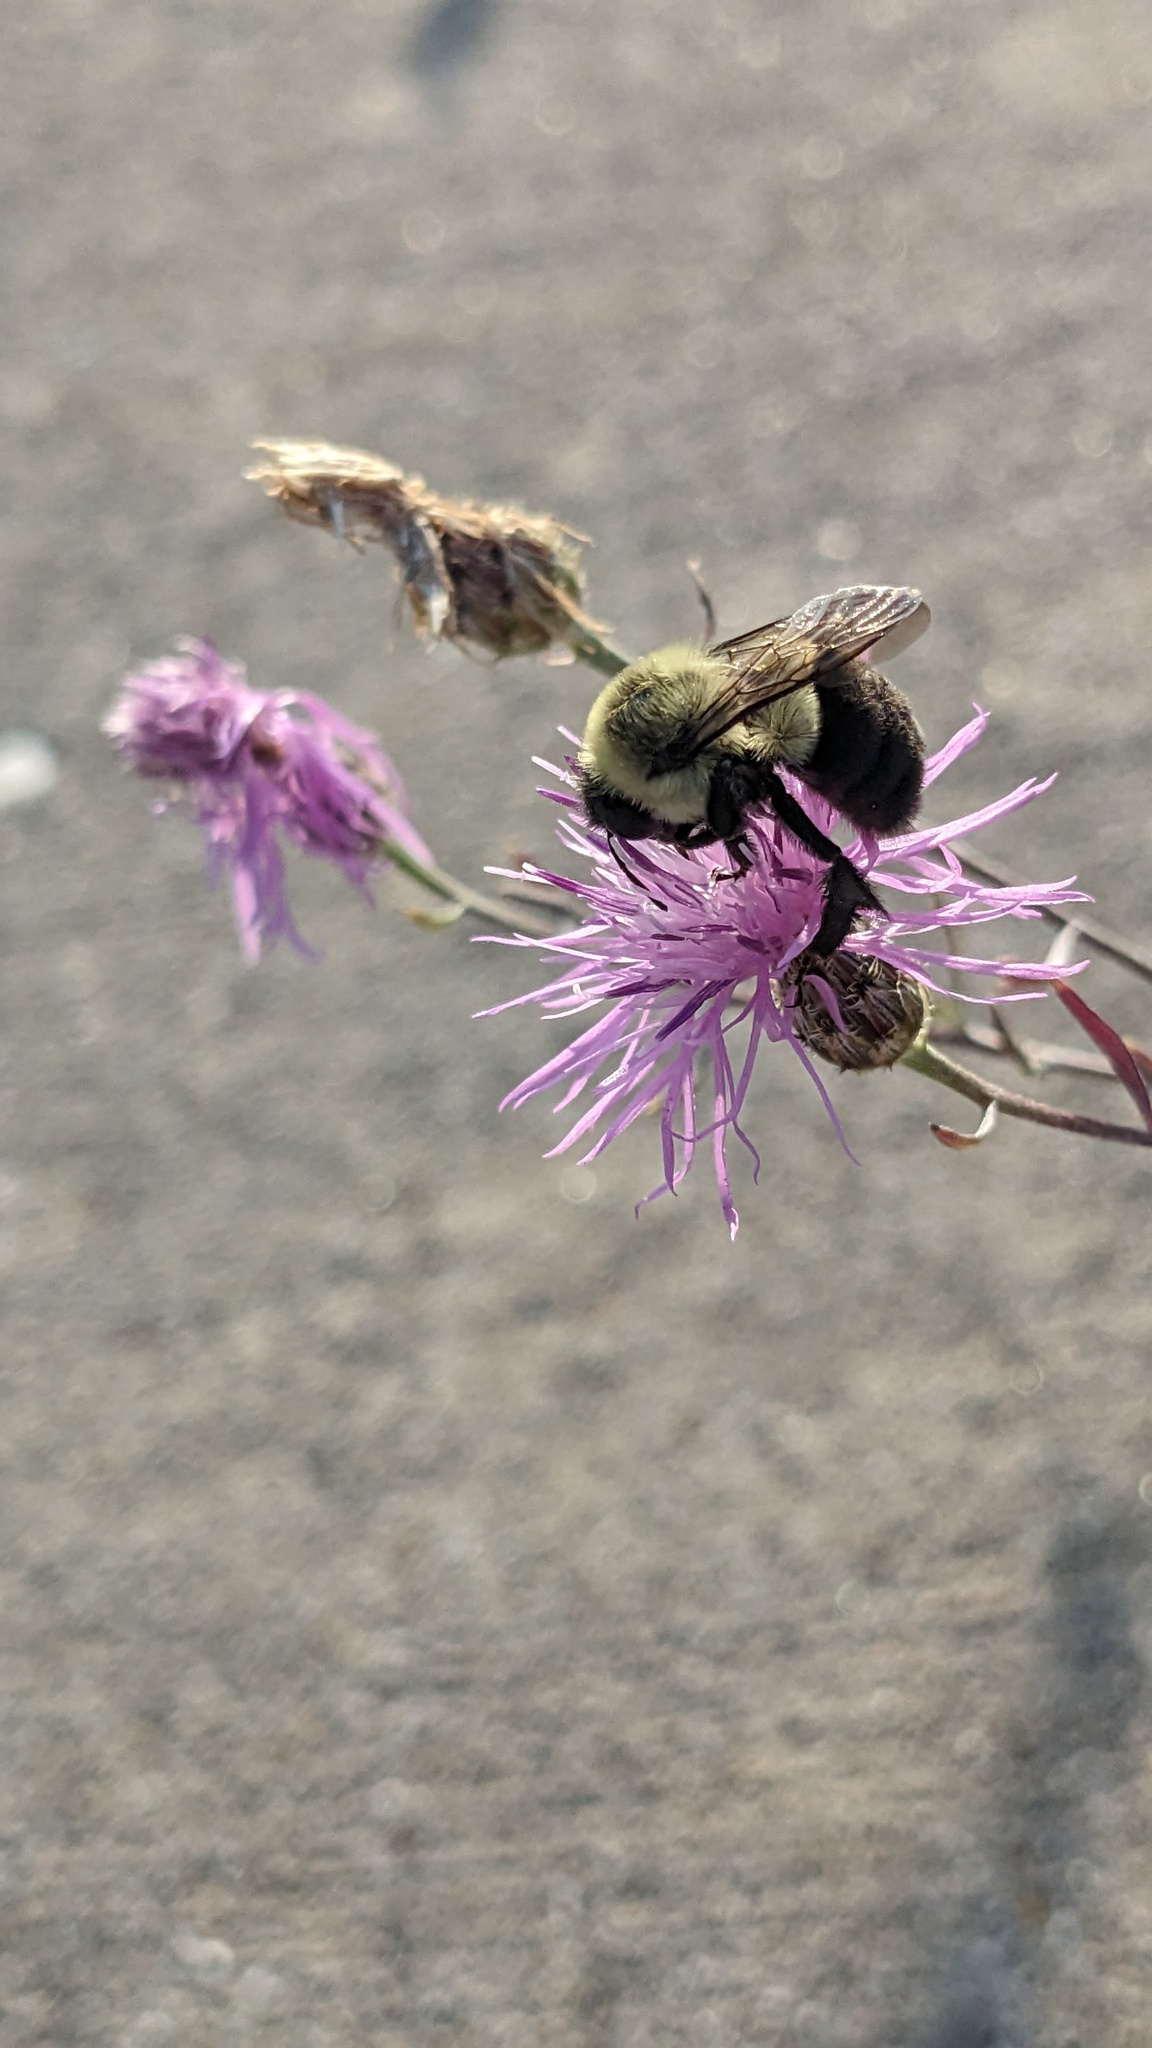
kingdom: Animalia
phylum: Arthropoda
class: Insecta
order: Hymenoptera
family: Apidae
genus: Bombus
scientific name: Bombus impatiens
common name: Common eastern bumble bee
